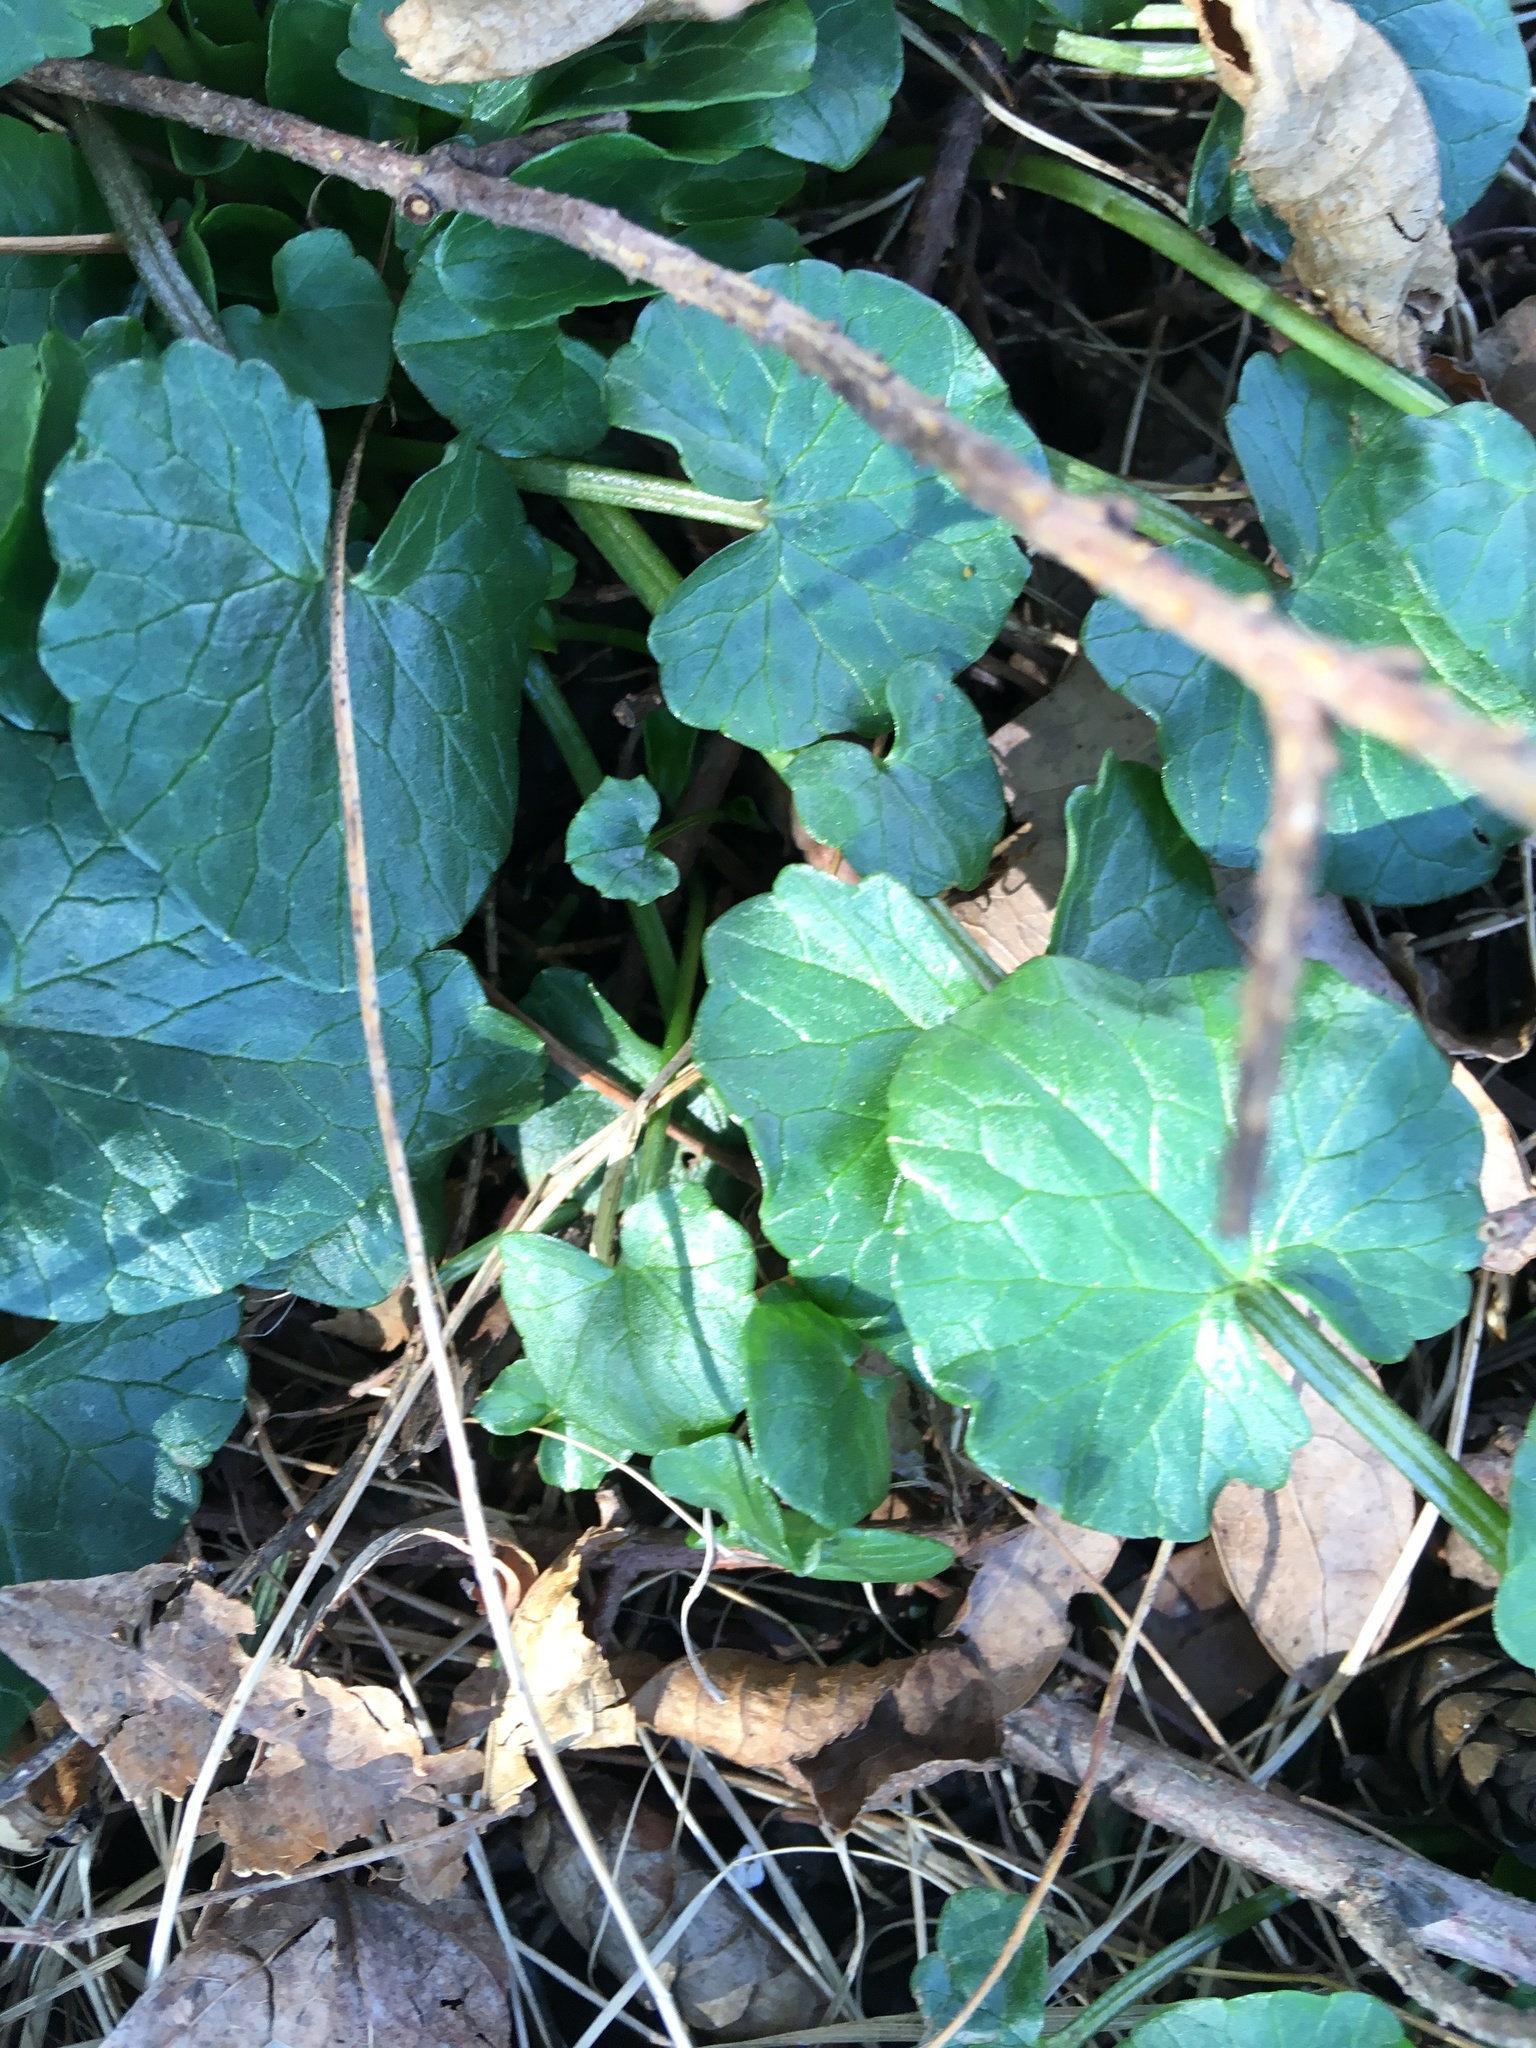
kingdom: Plantae
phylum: Tracheophyta
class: Magnoliopsida
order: Ranunculales
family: Ranunculaceae
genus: Ficaria
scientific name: Ficaria verna
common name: Lesser celandine
